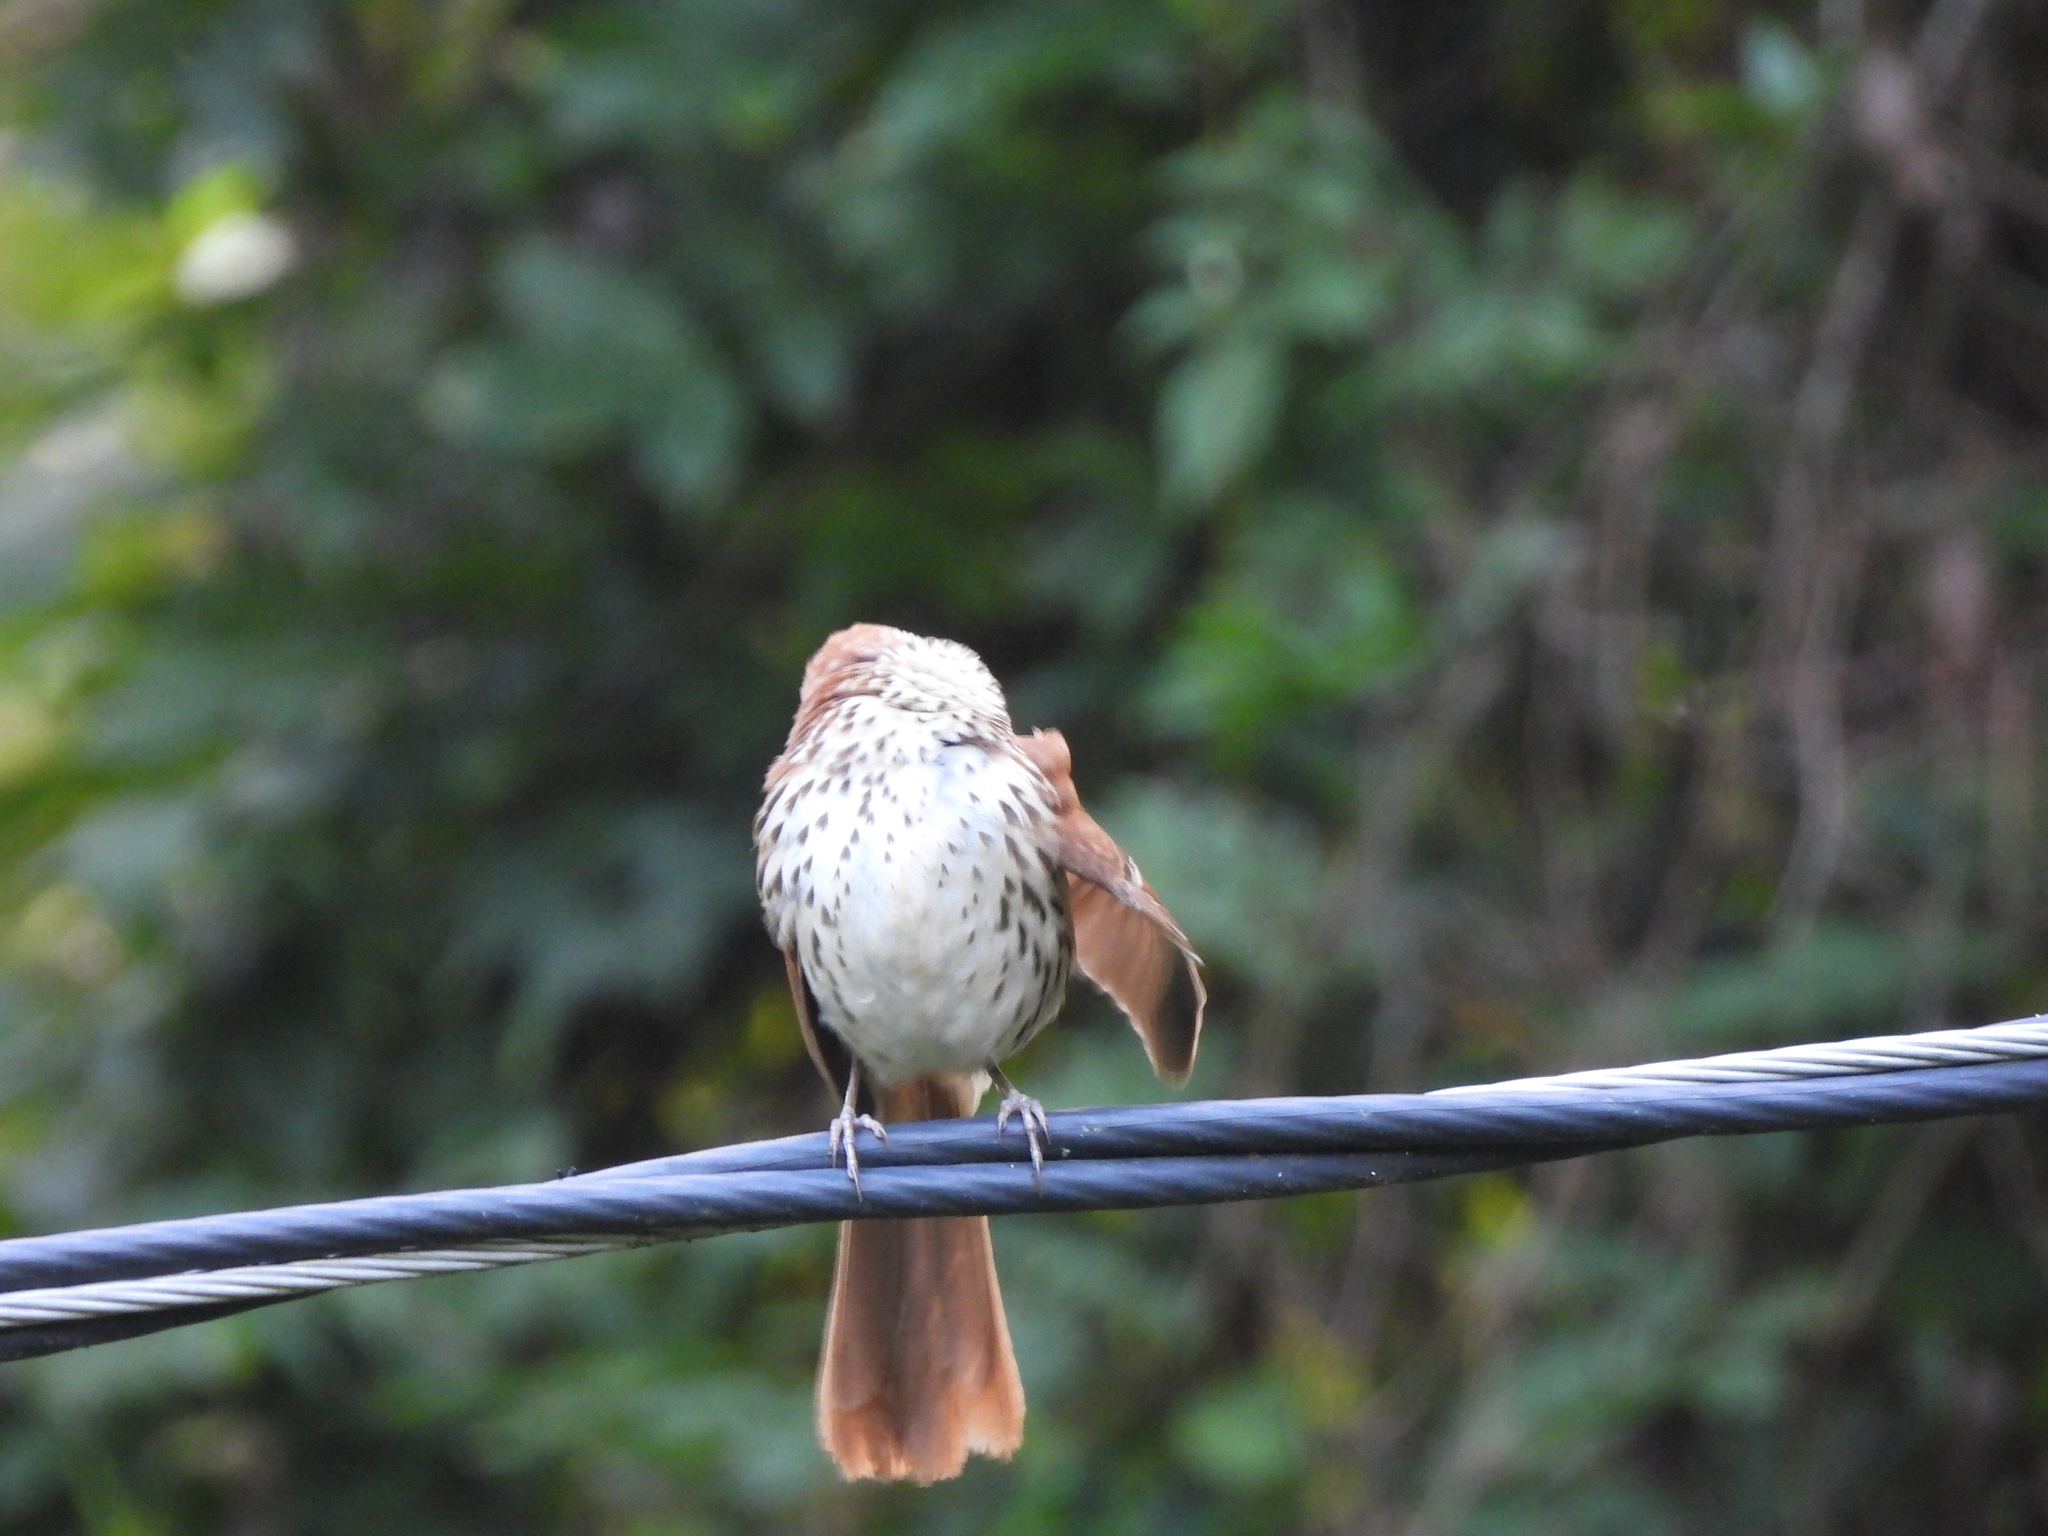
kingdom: Animalia
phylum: Chordata
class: Aves
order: Passeriformes
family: Mimidae
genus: Toxostoma
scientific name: Toxostoma rufum
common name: Brown thrasher
